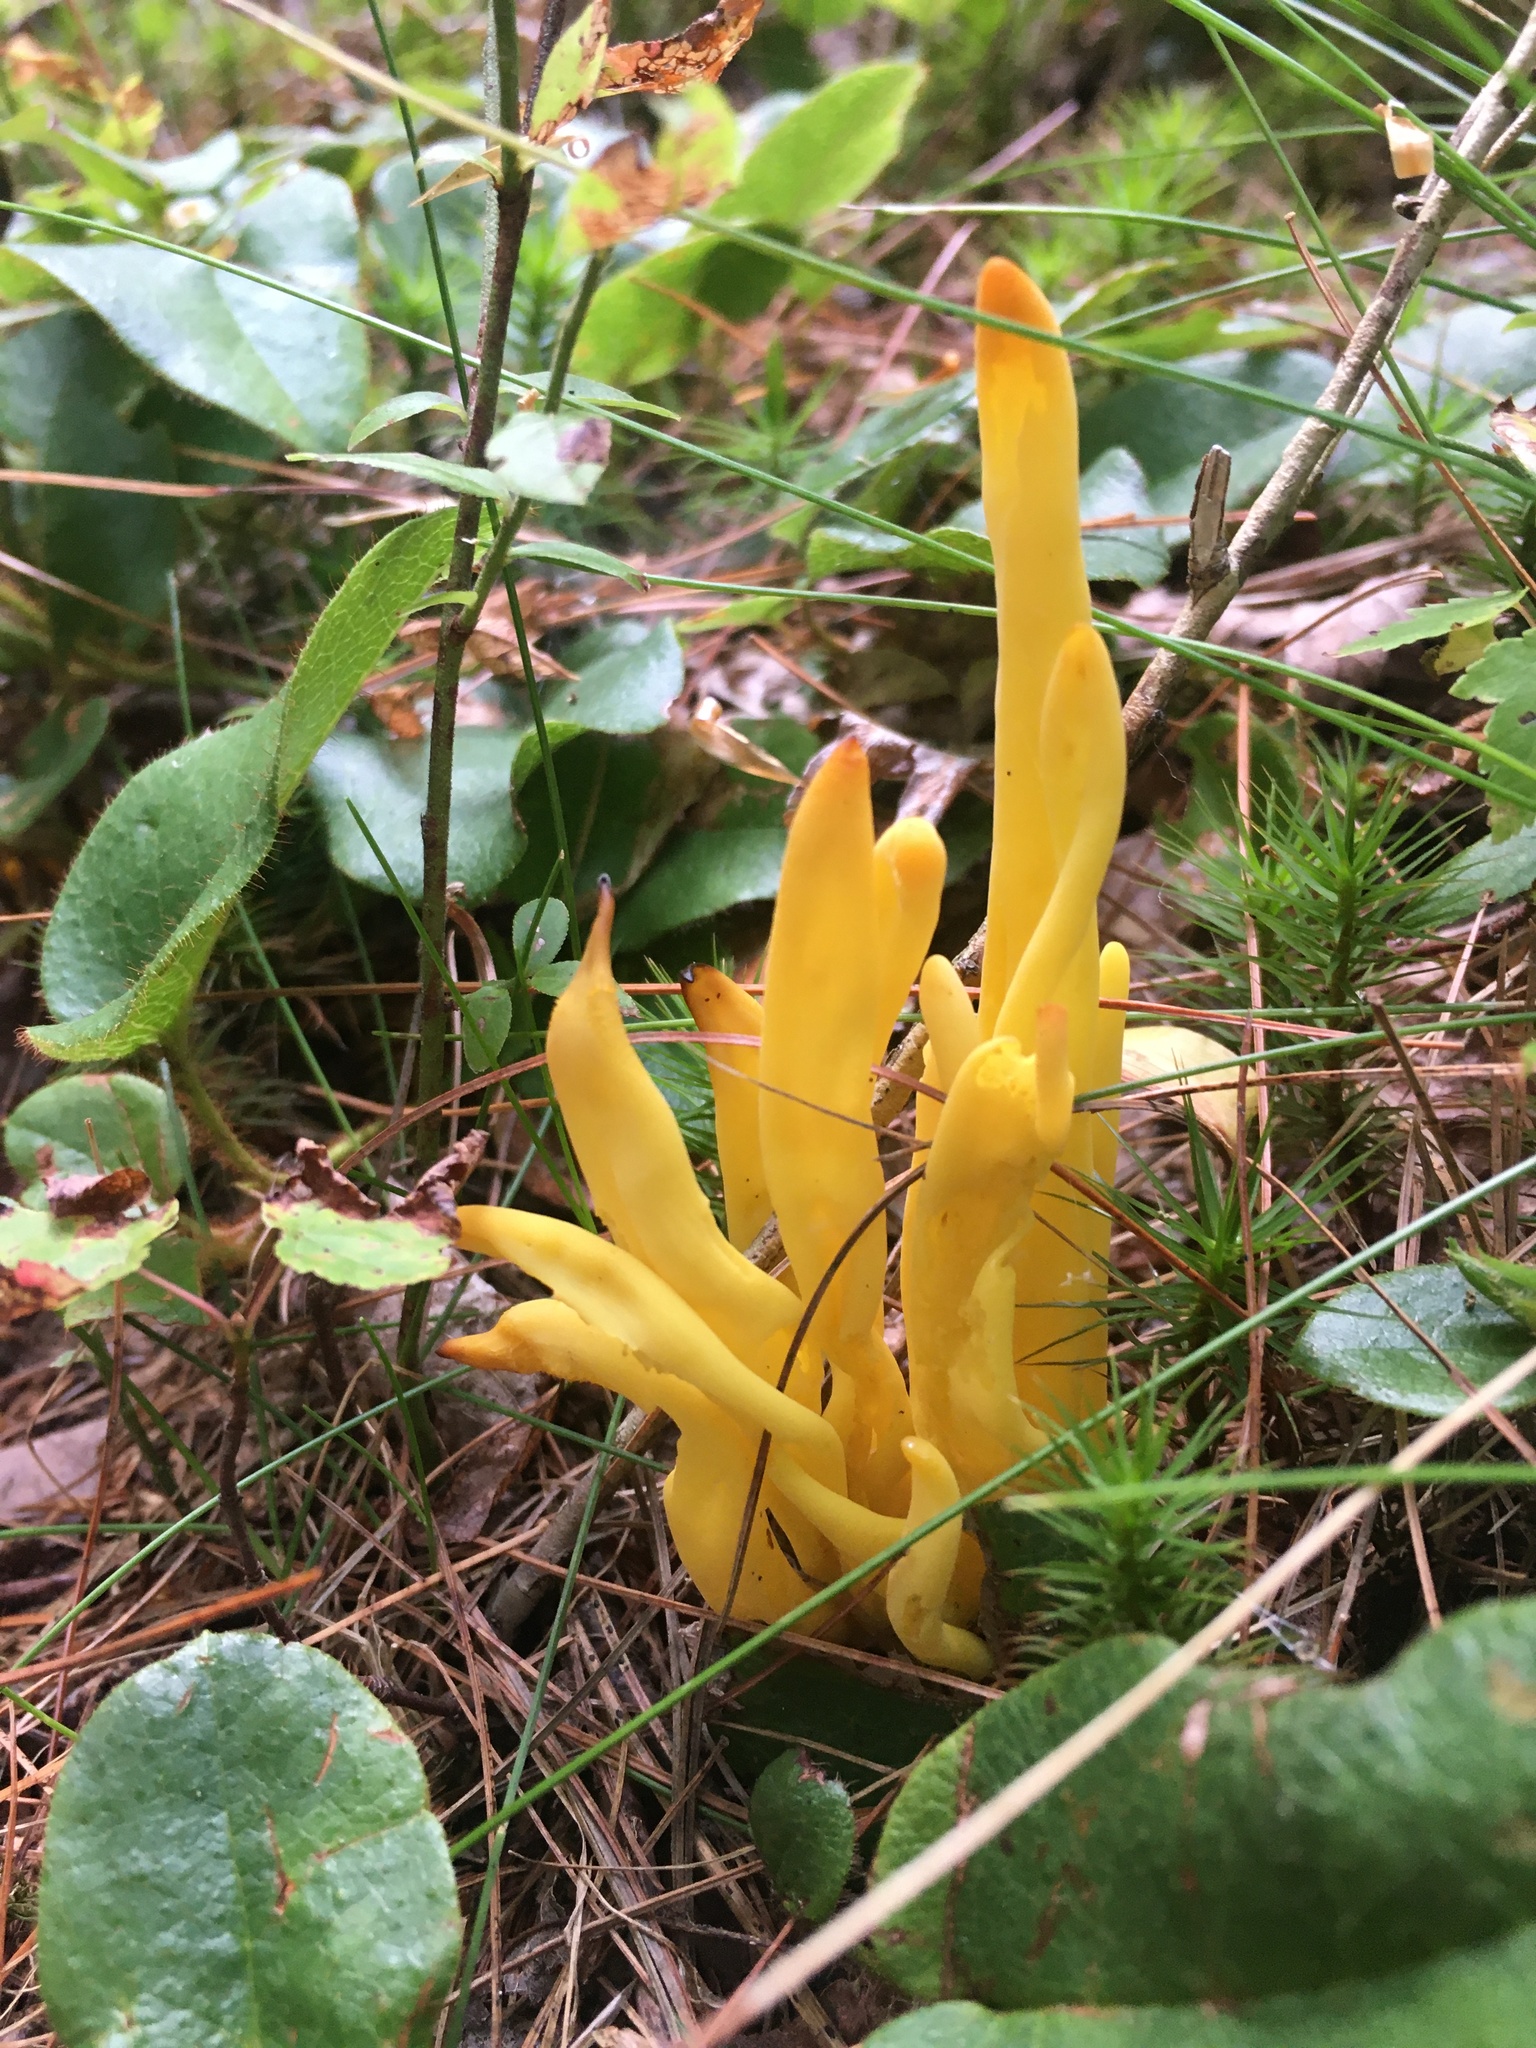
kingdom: Fungi
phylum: Basidiomycota
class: Agaricomycetes
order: Agaricales
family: Clavariaceae
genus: Clavulinopsis
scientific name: Clavulinopsis fusiformis
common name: Golden spindles
